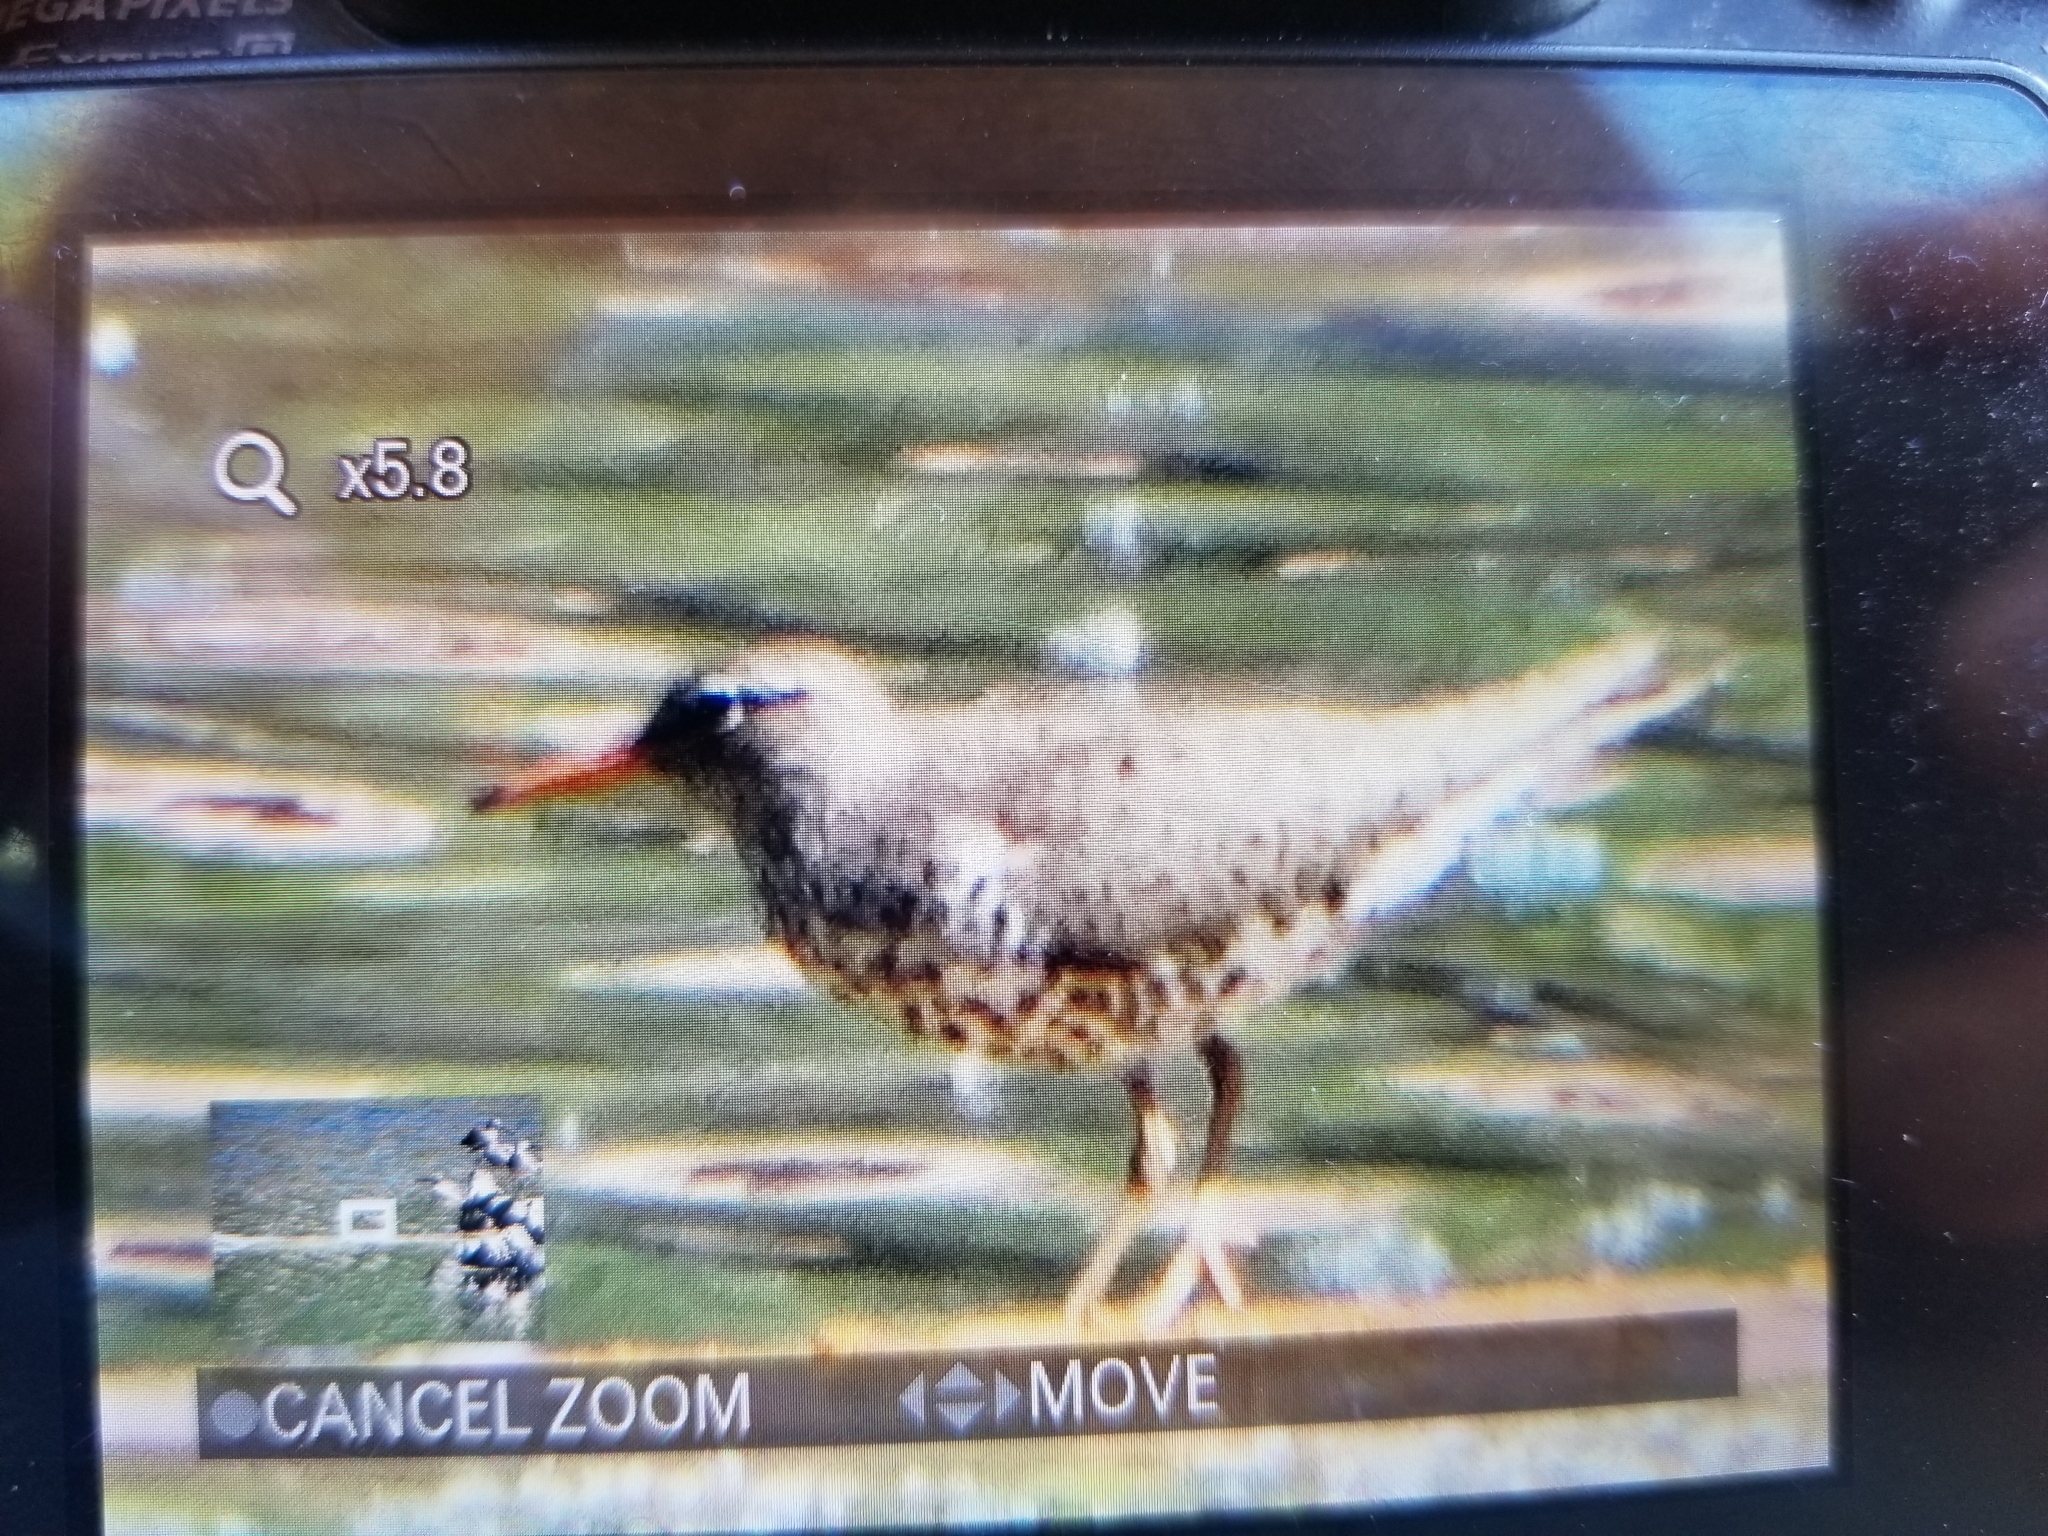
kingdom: Animalia
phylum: Chordata
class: Aves
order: Charadriiformes
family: Scolopacidae
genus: Actitis
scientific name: Actitis macularius
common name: Spotted sandpiper
